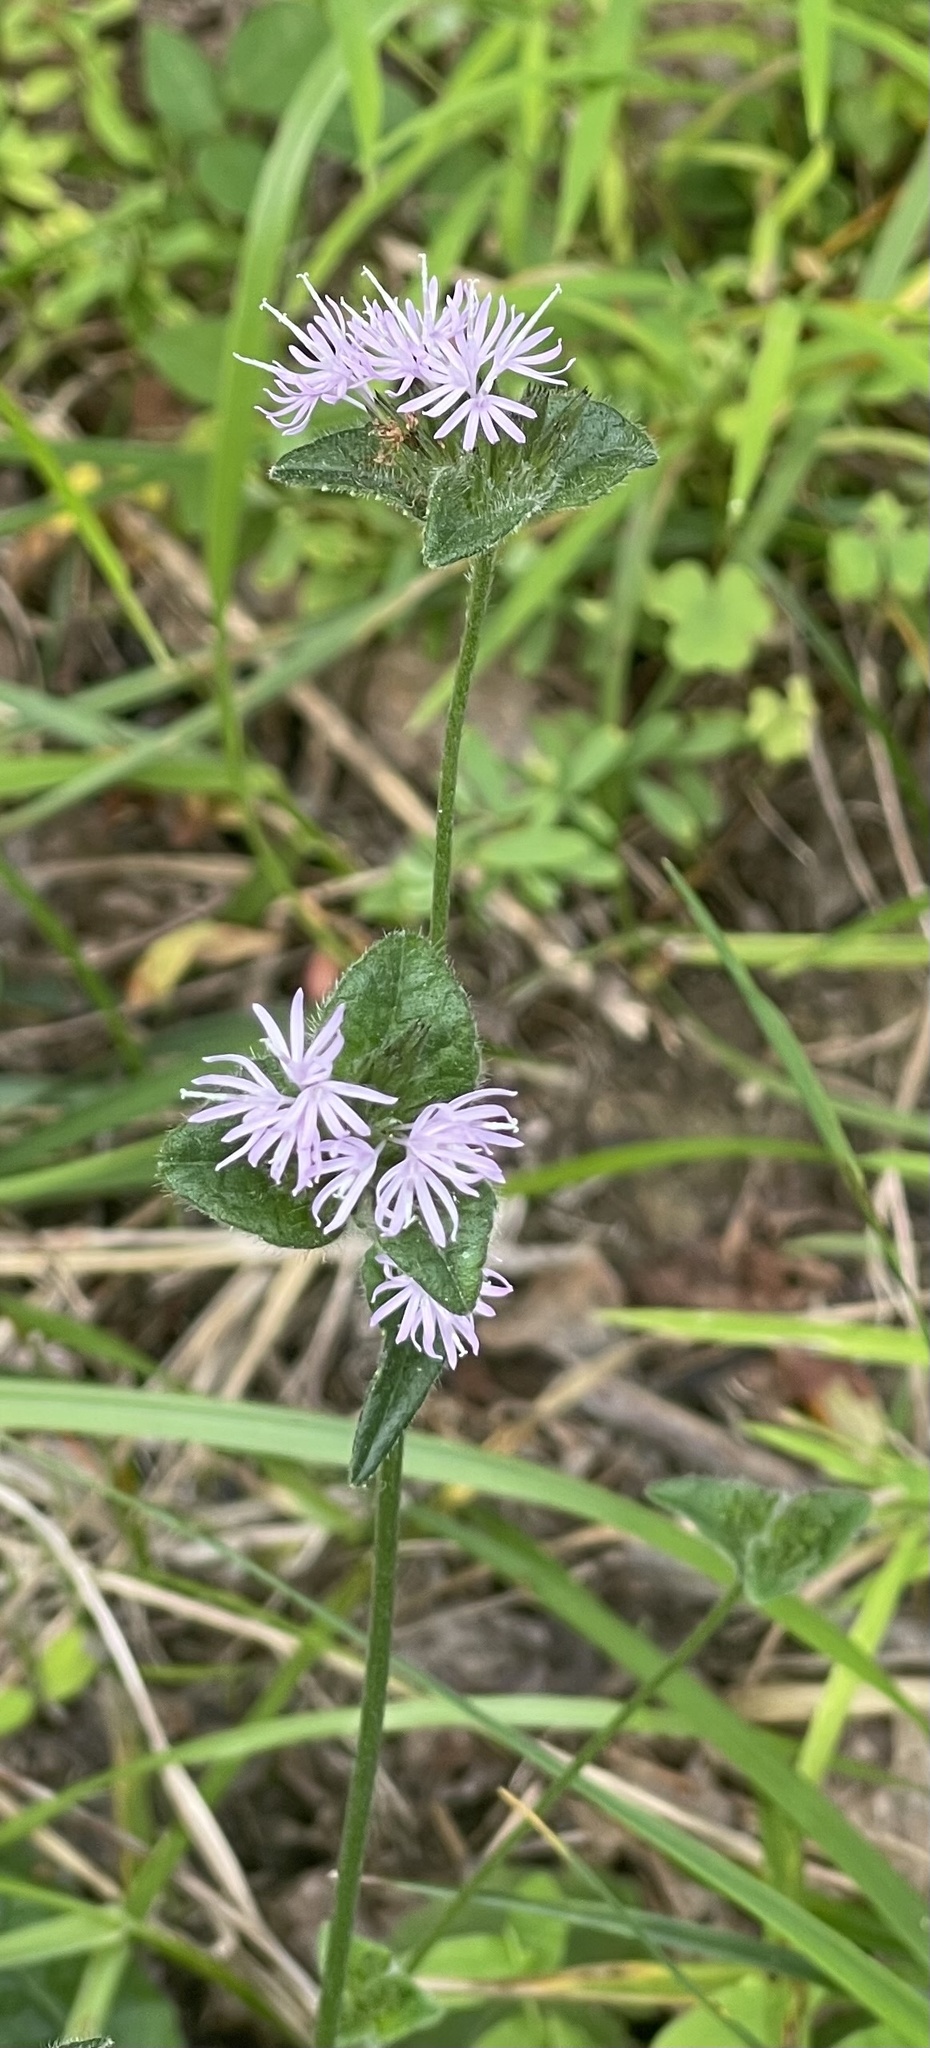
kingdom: Plantae
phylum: Tracheophyta
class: Magnoliopsida
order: Asterales
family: Asteraceae
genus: Elephantopus
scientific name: Elephantopus tomentosus
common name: Tobacco-weed
